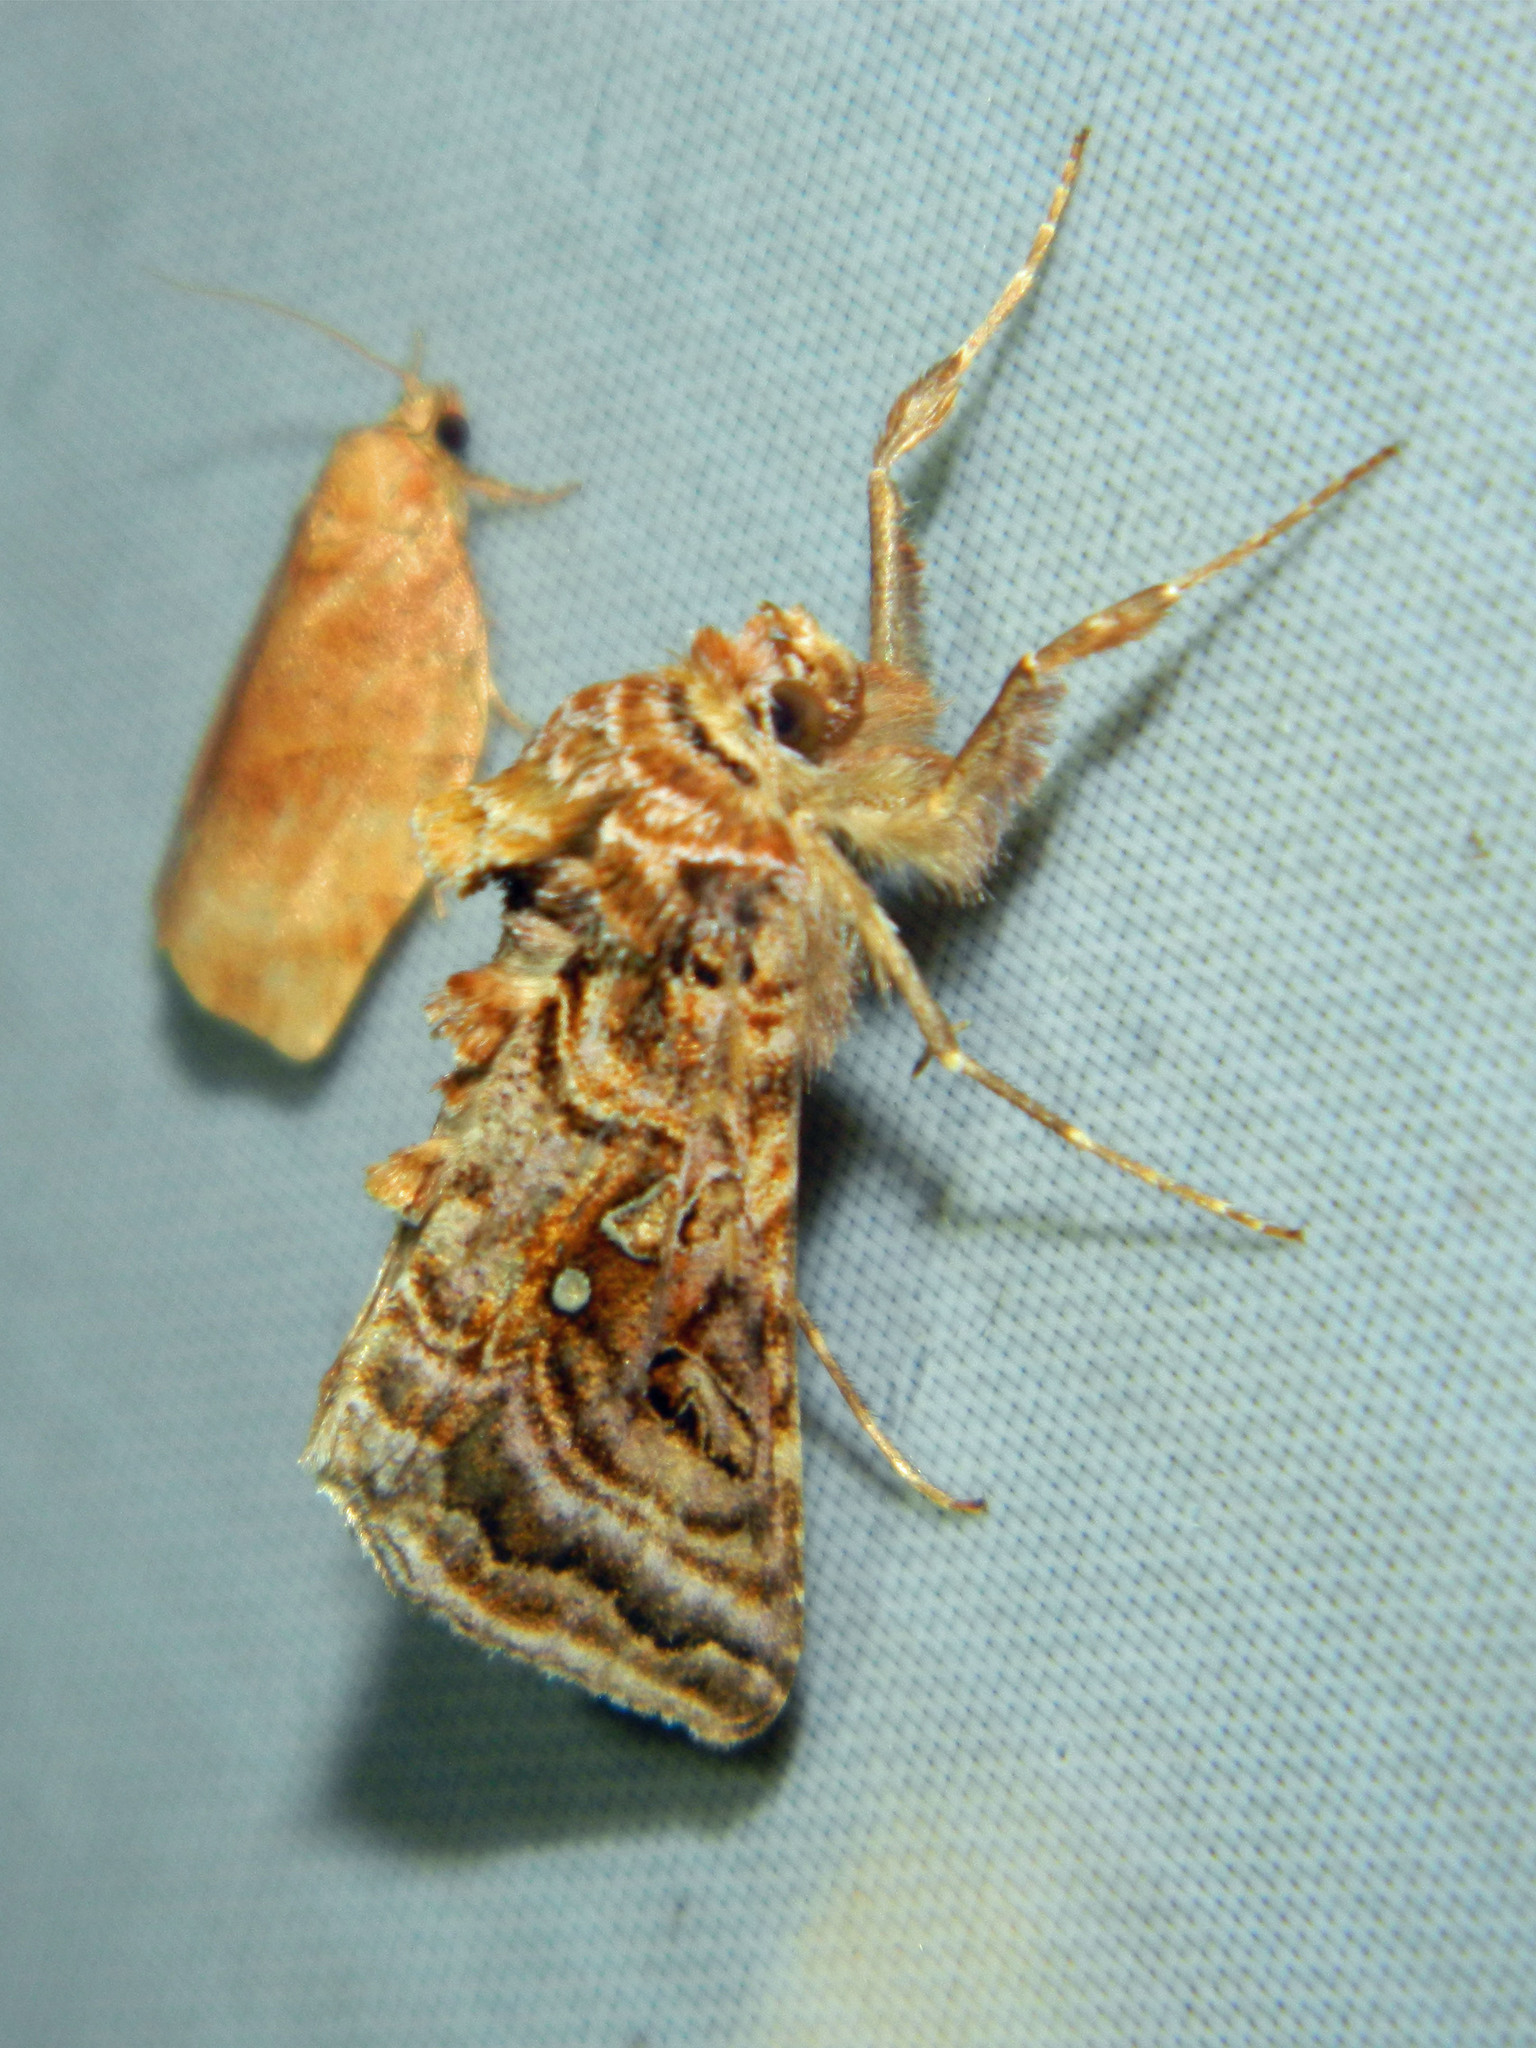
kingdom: Animalia
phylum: Arthropoda
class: Insecta
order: Lepidoptera
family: Noctuidae
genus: Autographa
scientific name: Autographa mappa
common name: Wavy chestnut y moth
